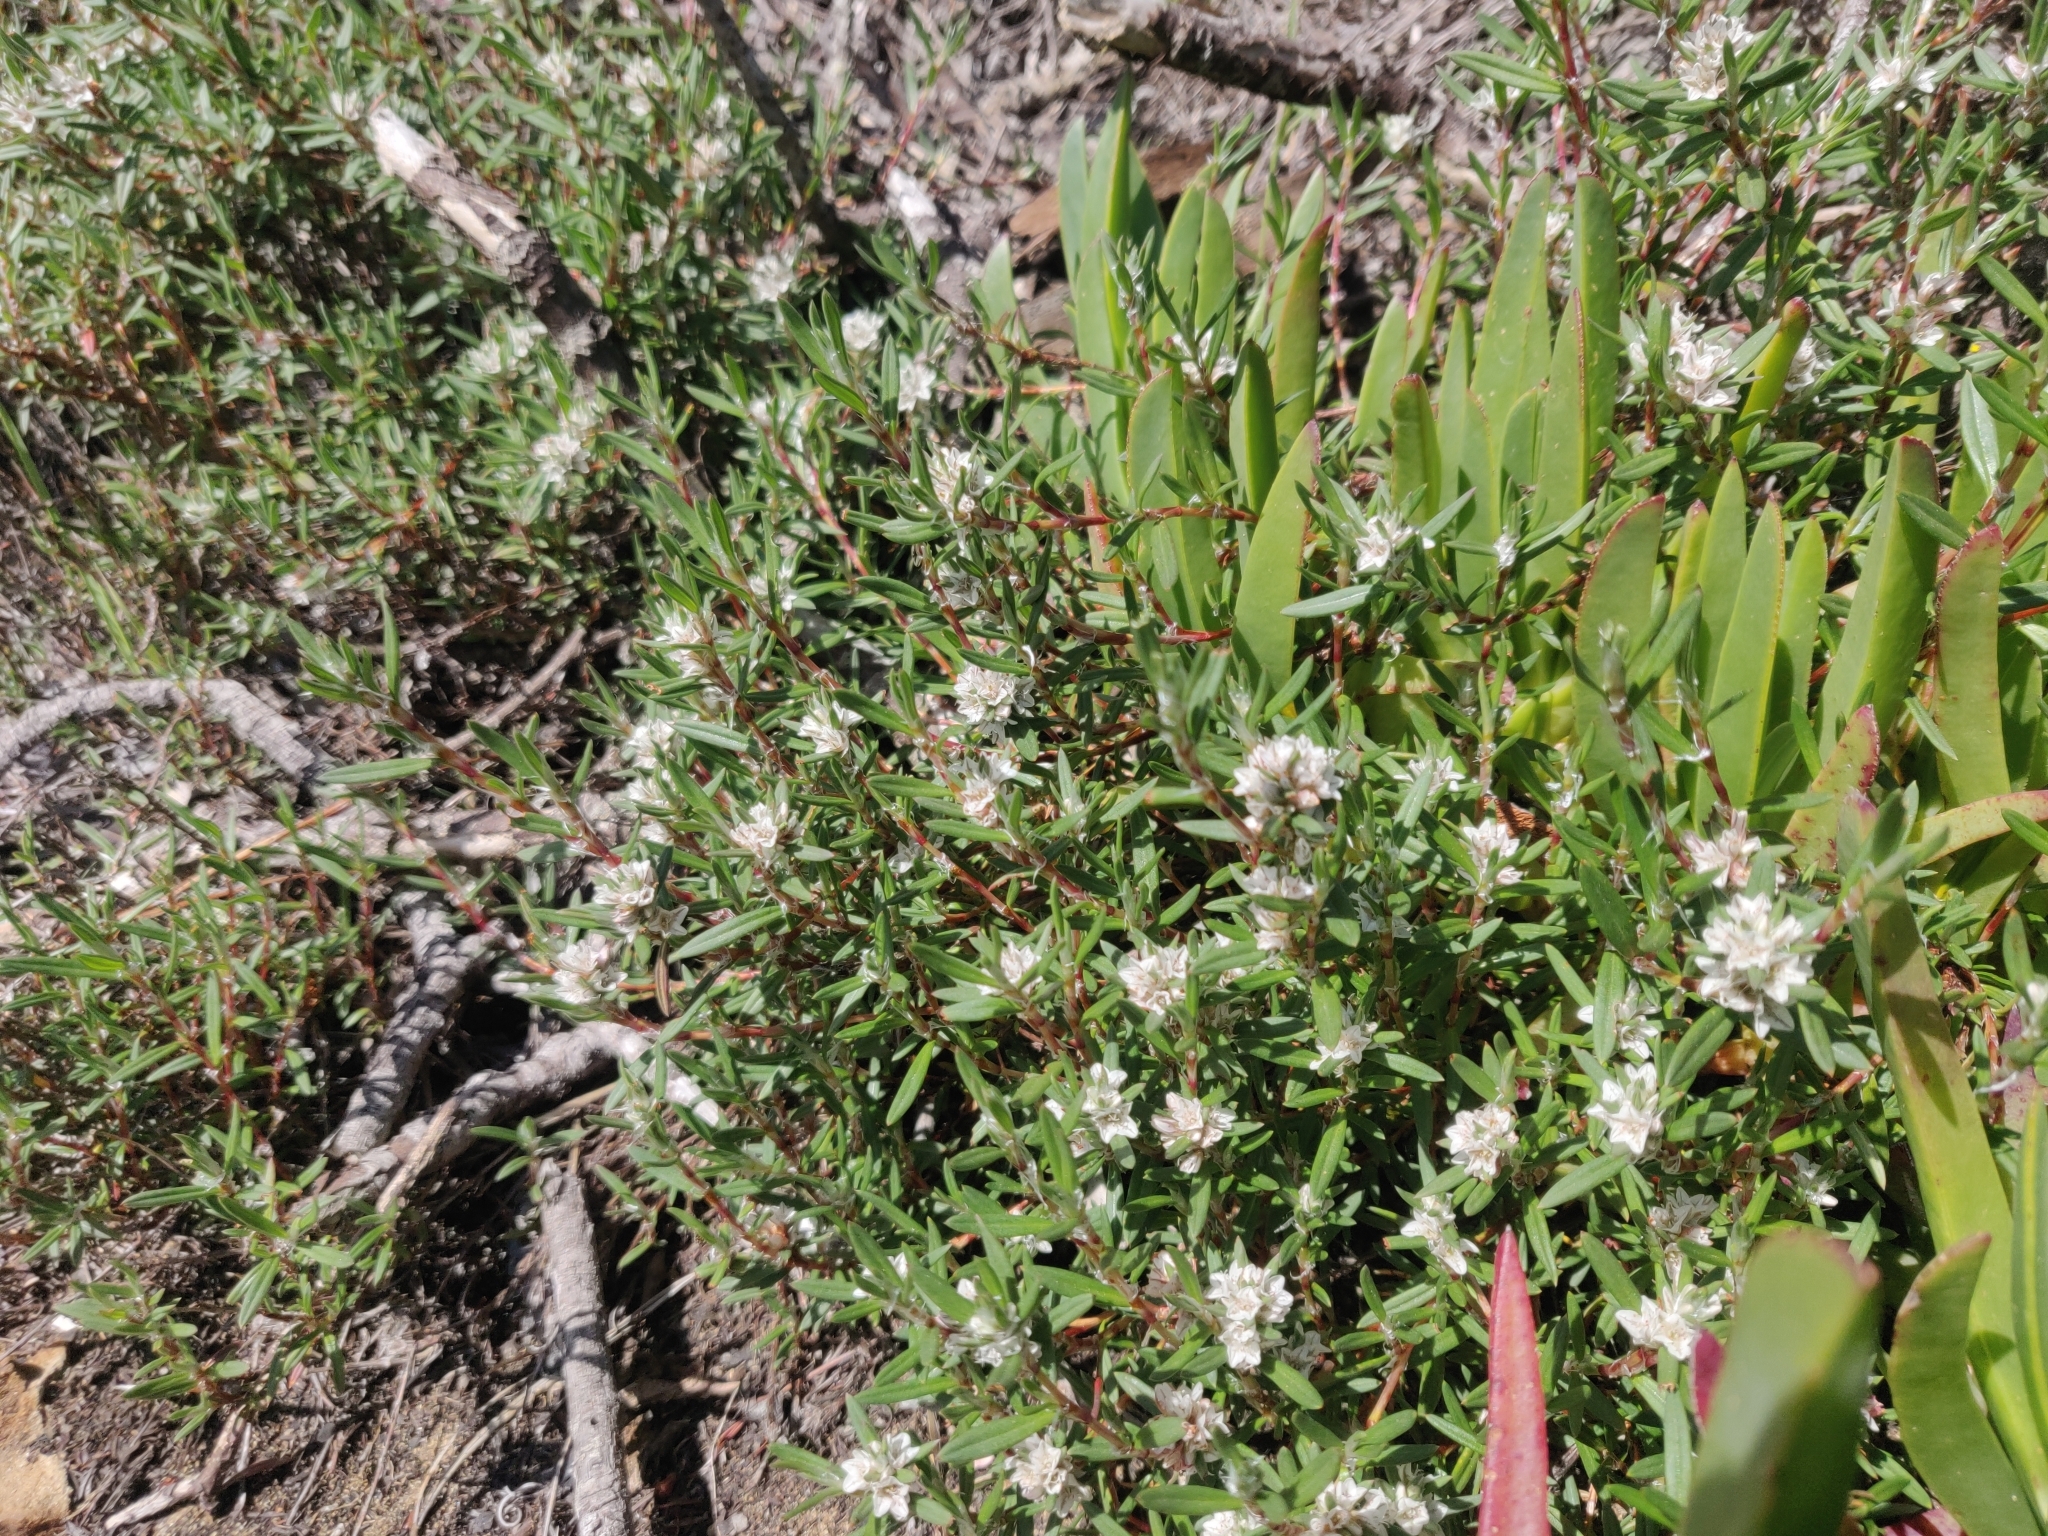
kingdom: Plantae
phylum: Tracheophyta
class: Magnoliopsida
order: Caryophyllales
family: Polygonaceae
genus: Polygonum
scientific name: Polygonum paronychia
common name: Dune knotweed
